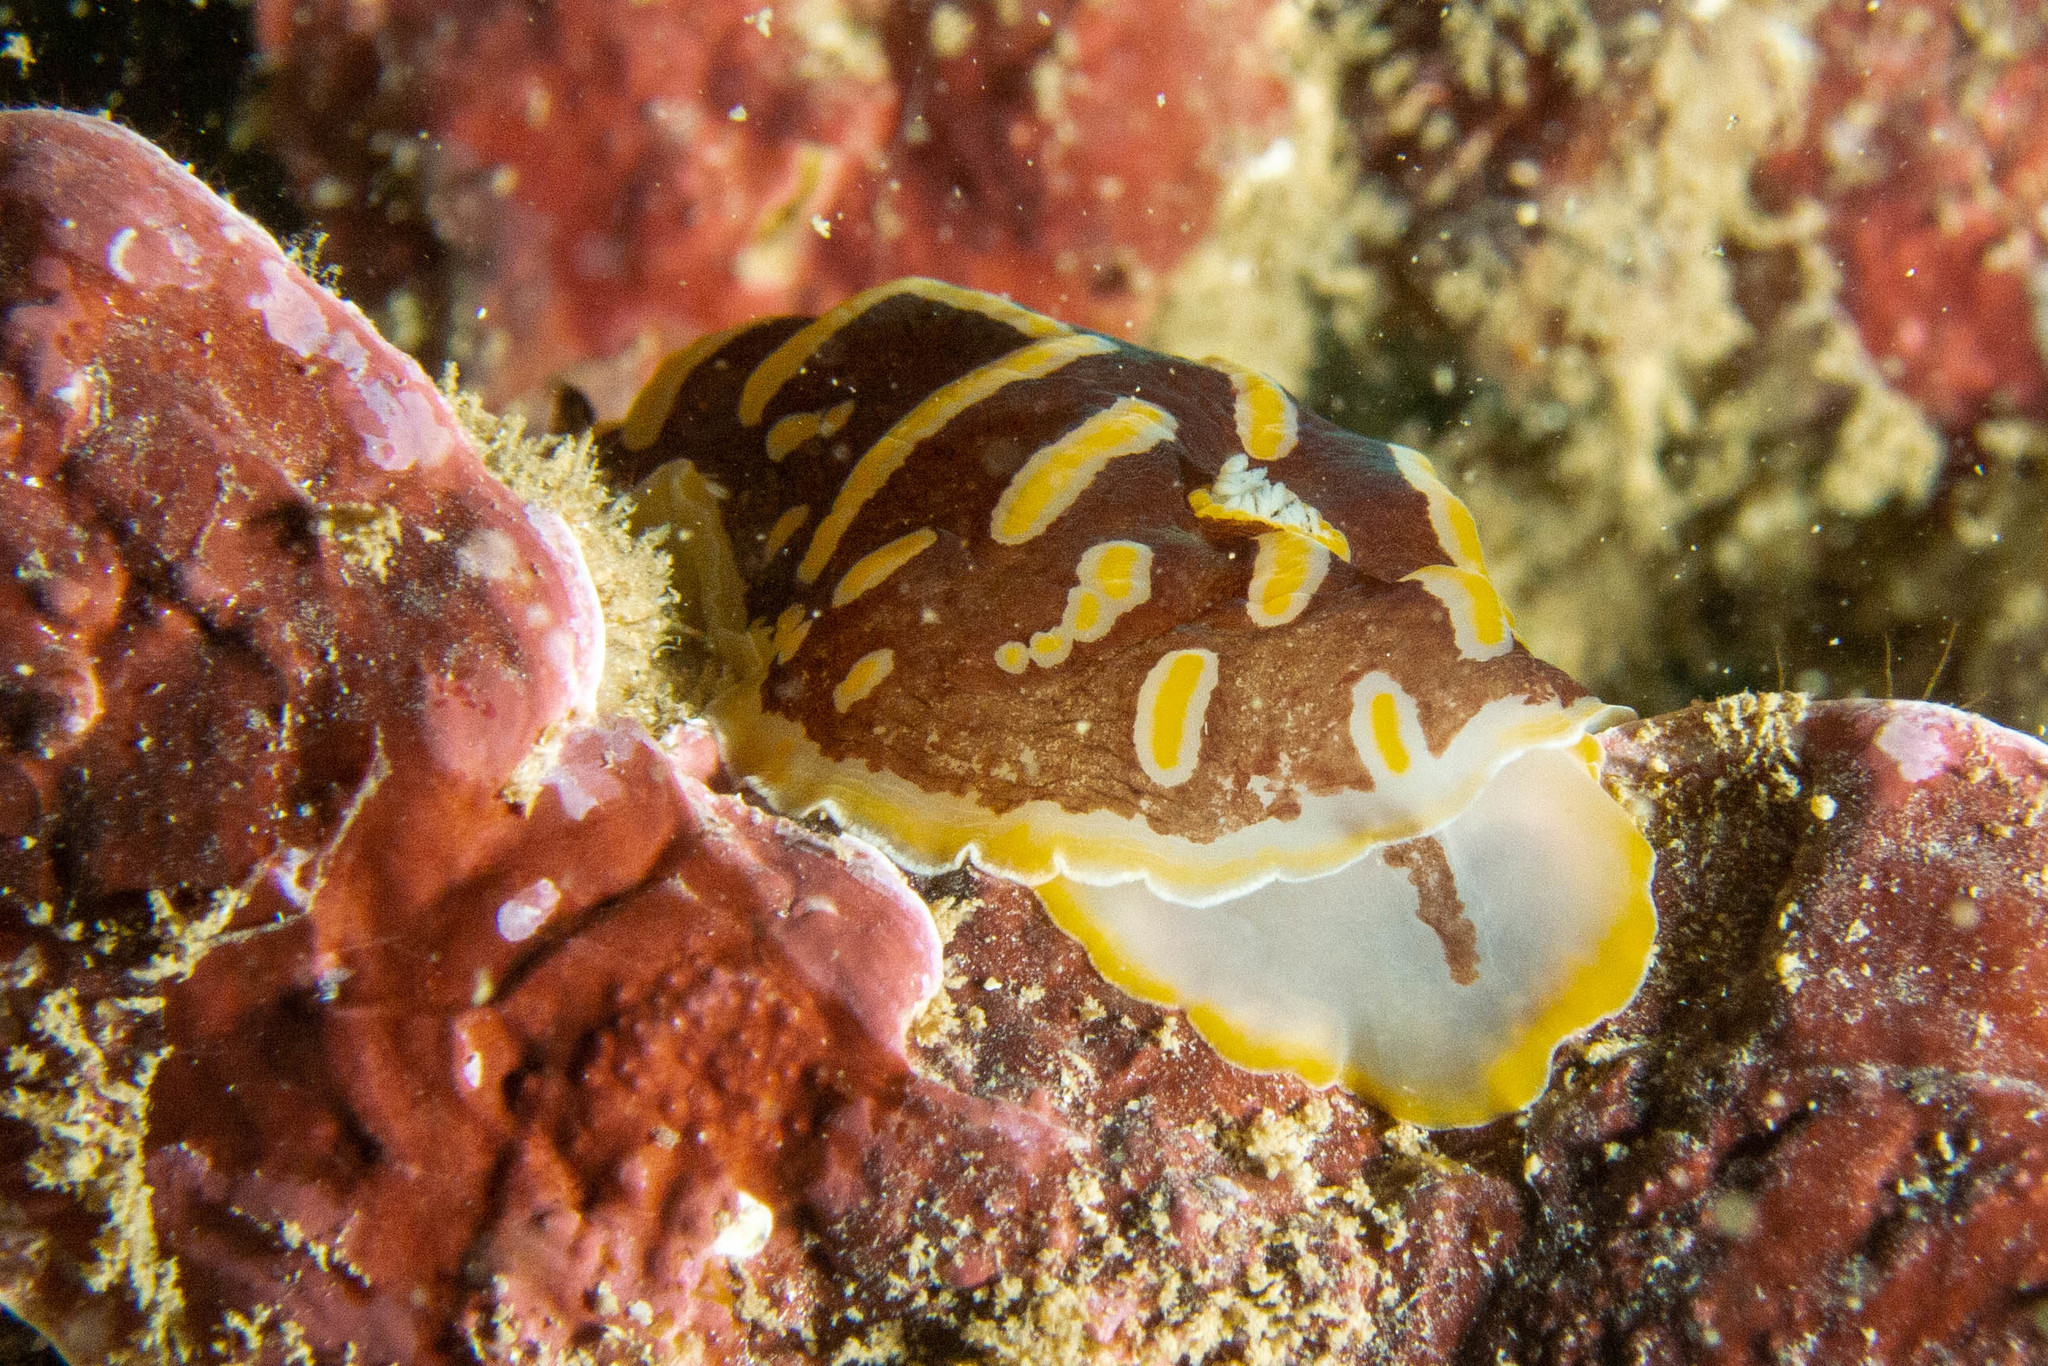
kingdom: Animalia
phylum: Mollusca
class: Gastropoda
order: Nudibranchia
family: Discodorididae
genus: Halgerda
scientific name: Halgerda theobroma
